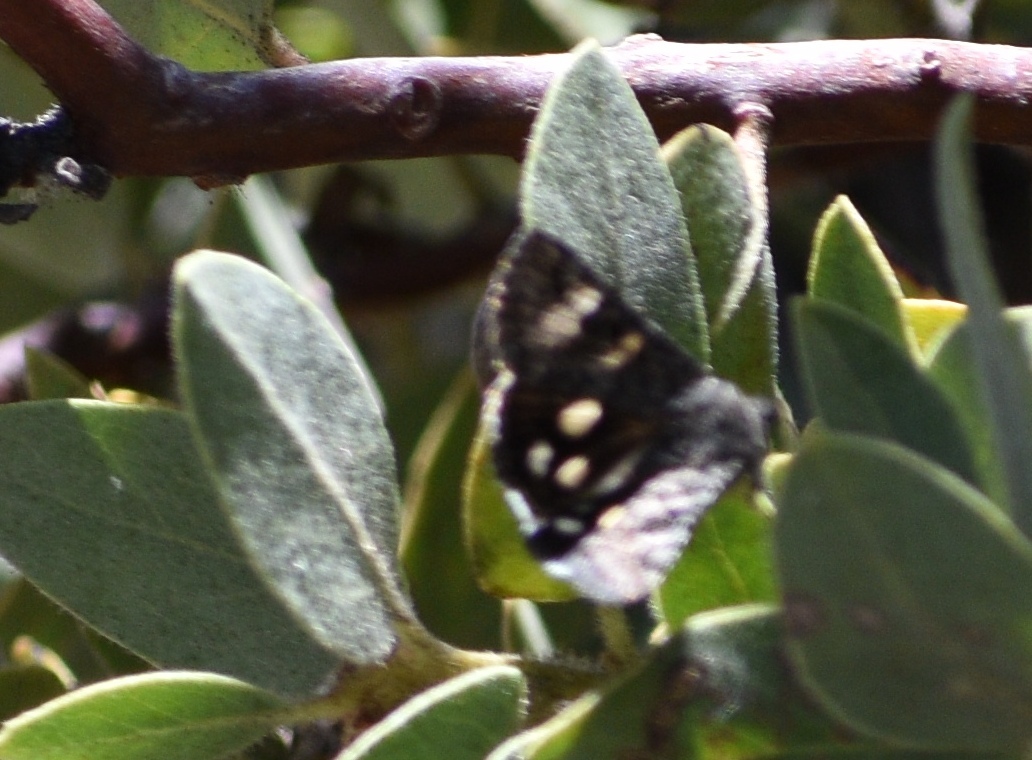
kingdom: Animalia
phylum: Arthropoda
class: Insecta
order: Lepidoptera
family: Erebidae
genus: Litocala
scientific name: Litocala sexsignata
